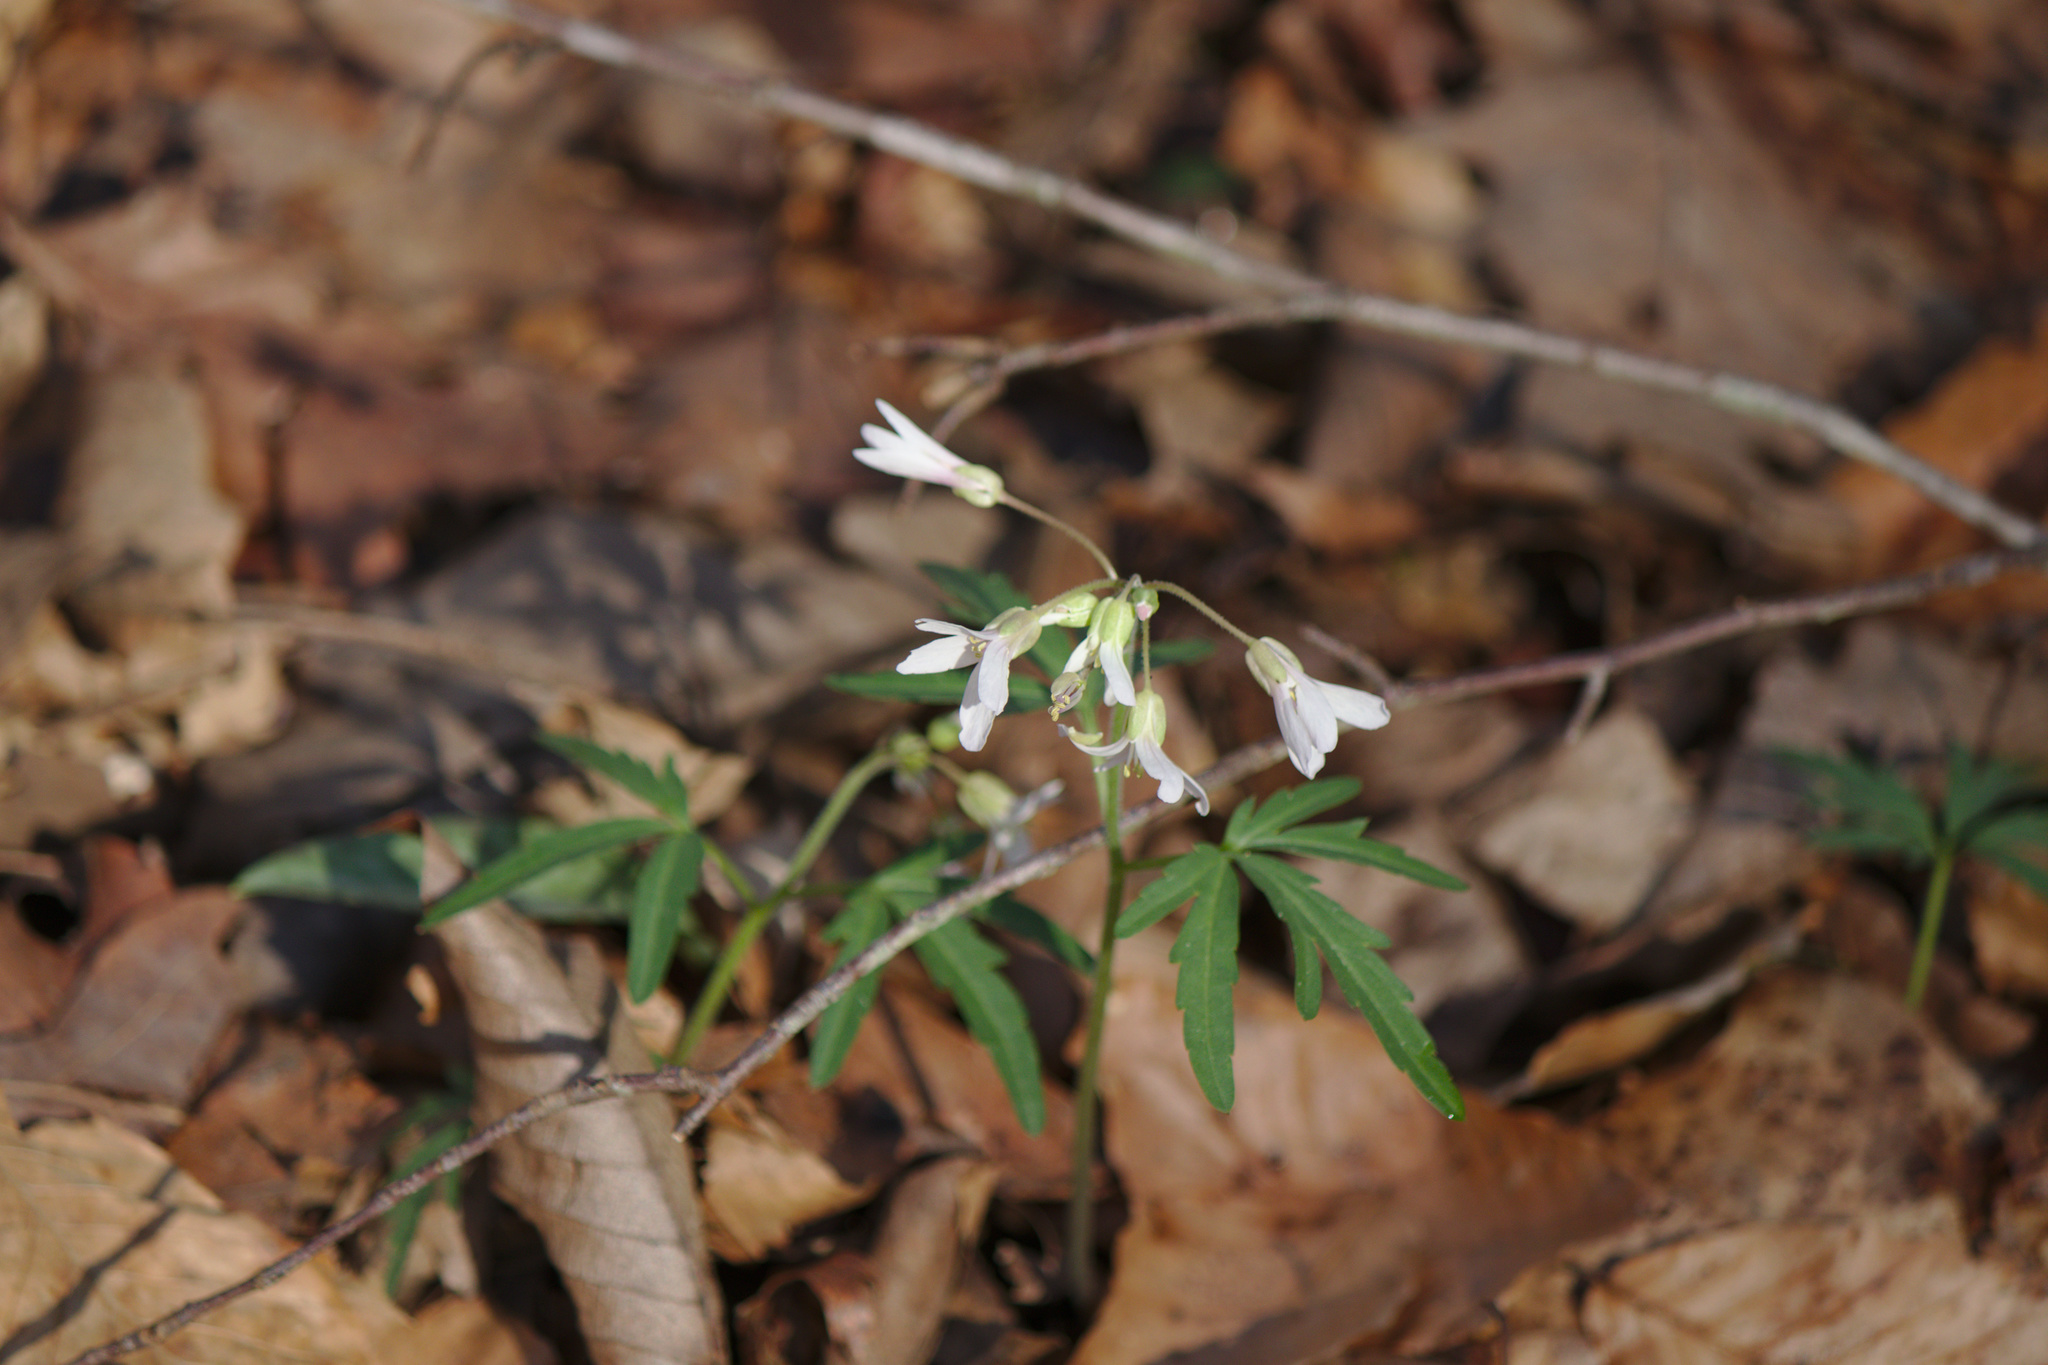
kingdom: Plantae
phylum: Tracheophyta
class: Magnoliopsida
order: Brassicales
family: Brassicaceae
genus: Cardamine
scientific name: Cardamine concatenata
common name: Cut-leaf toothcup
